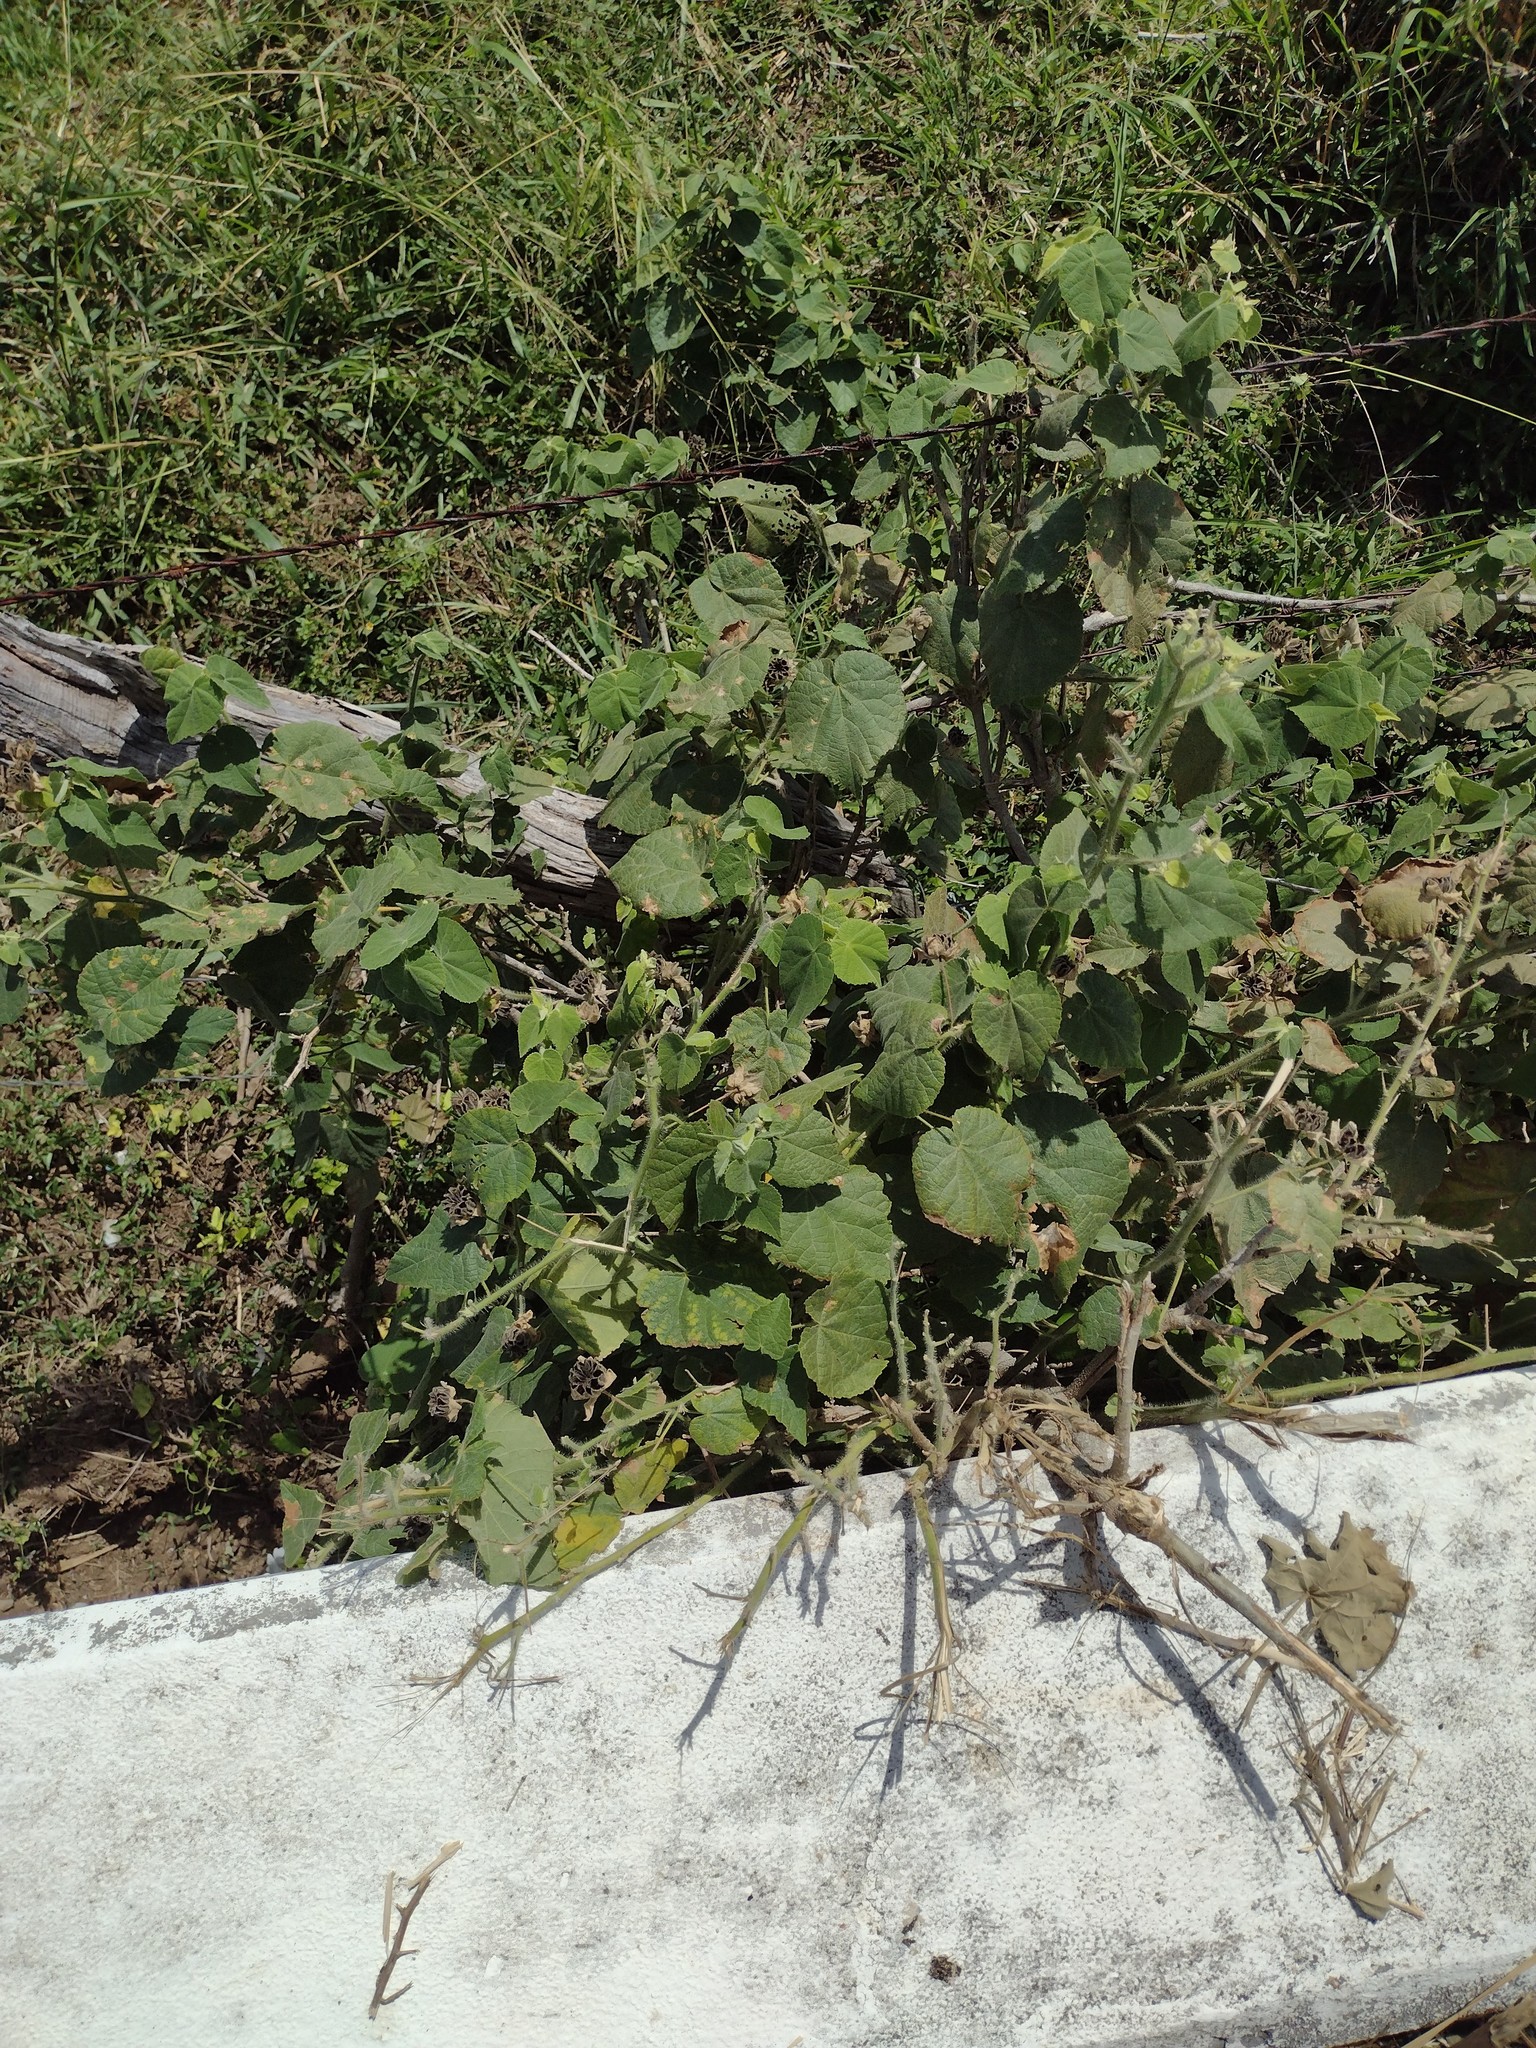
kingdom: Plantae
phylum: Tracheophyta
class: Magnoliopsida
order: Malvales
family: Malvaceae
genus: Abutilon
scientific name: Abutilon grandifolium
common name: Hairy abutilon
